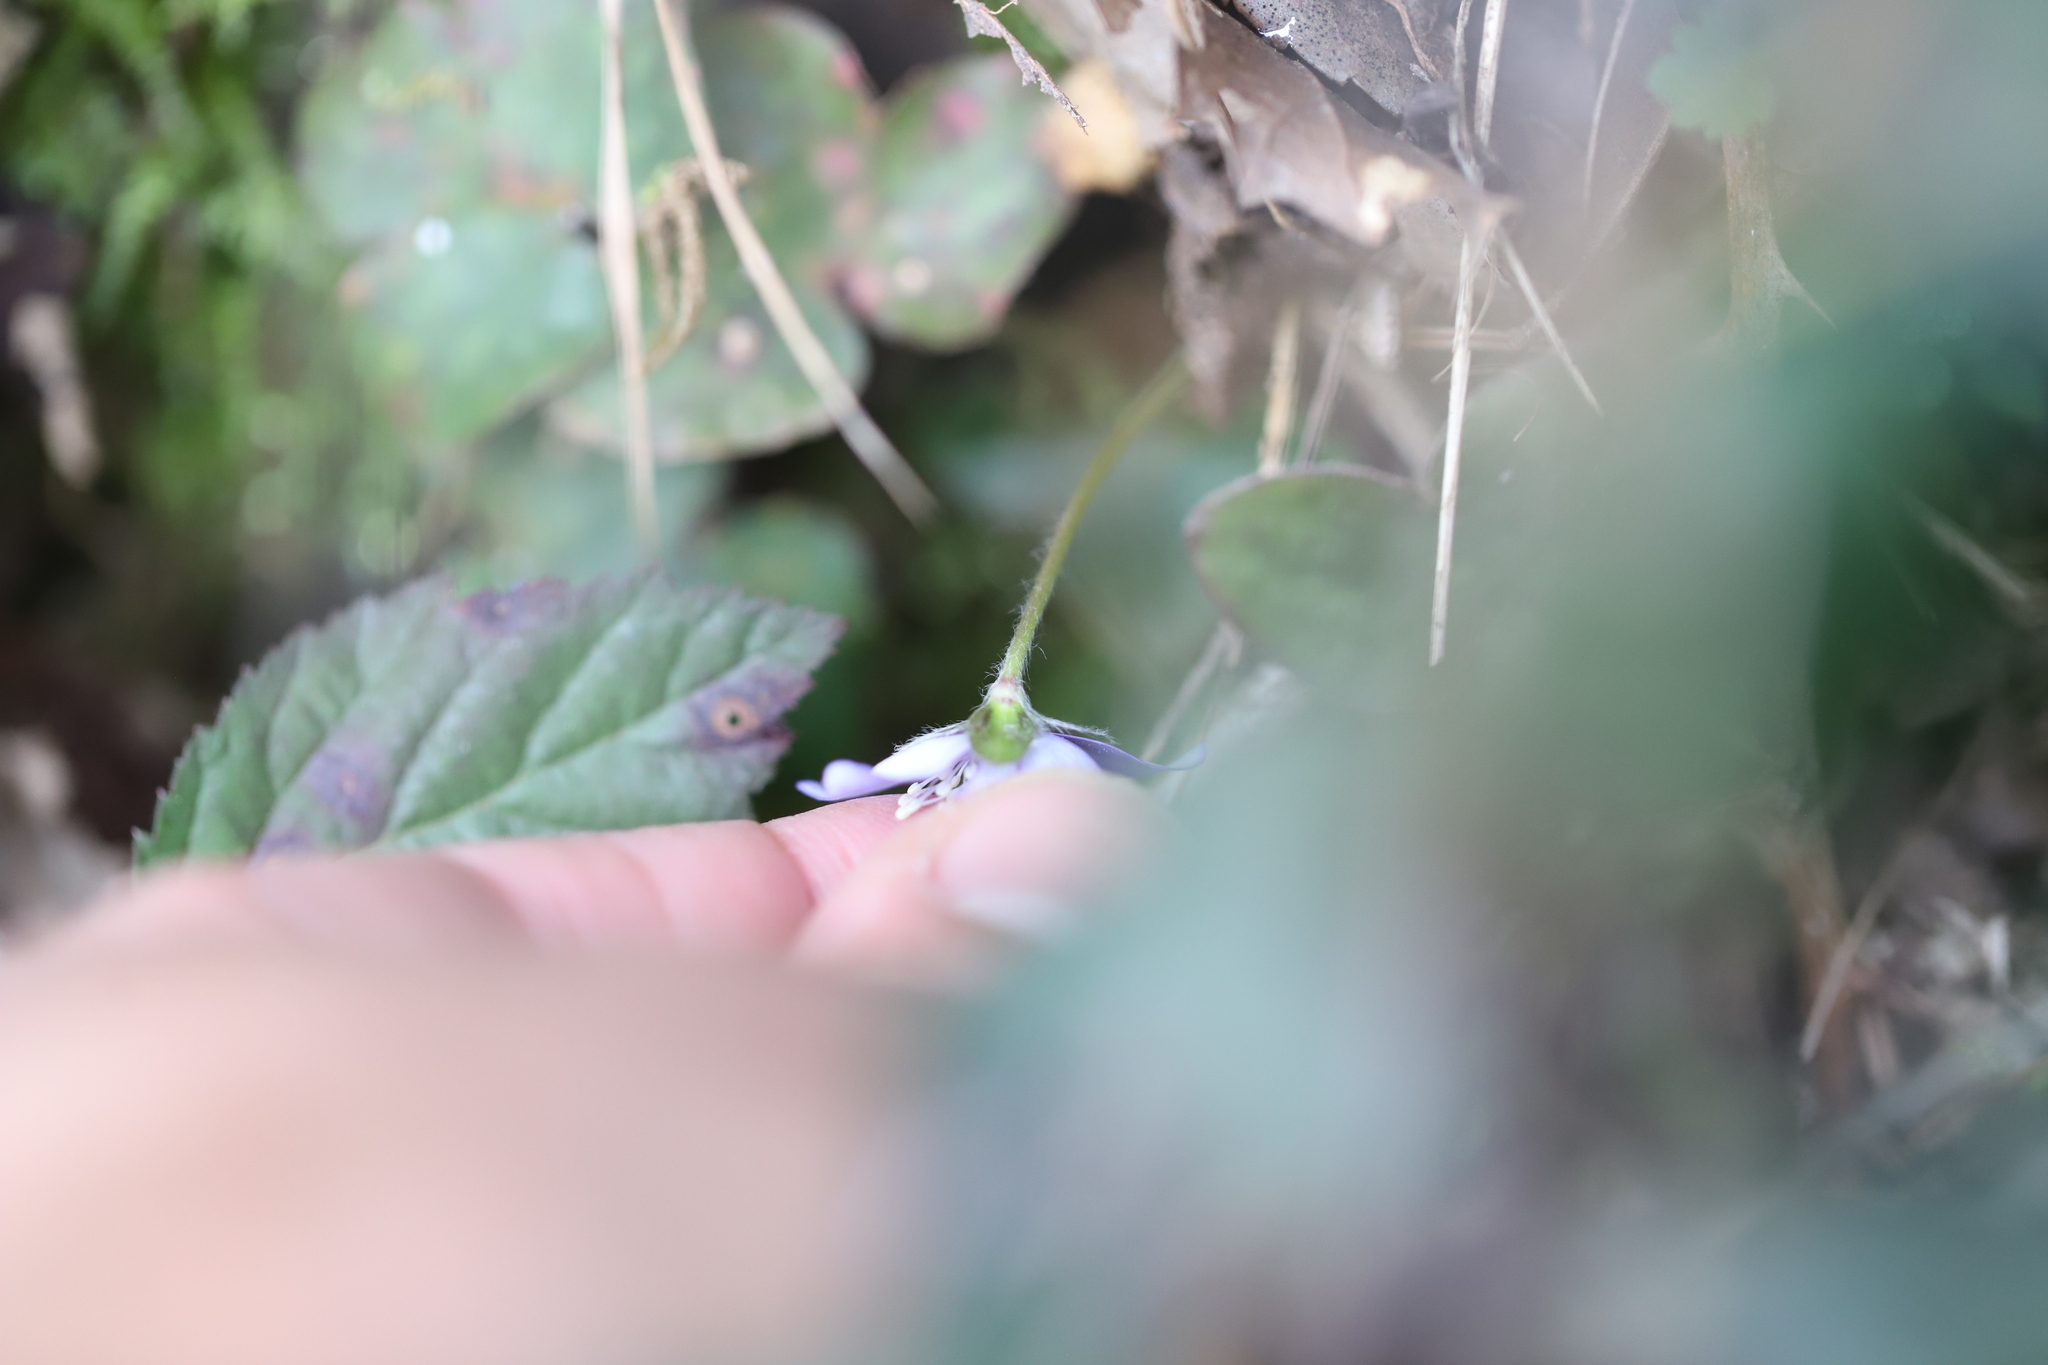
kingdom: Plantae
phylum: Tracheophyta
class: Magnoliopsida
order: Ranunculales
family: Ranunculaceae
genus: Hepatica
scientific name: Hepatica nobilis
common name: Liverleaf
